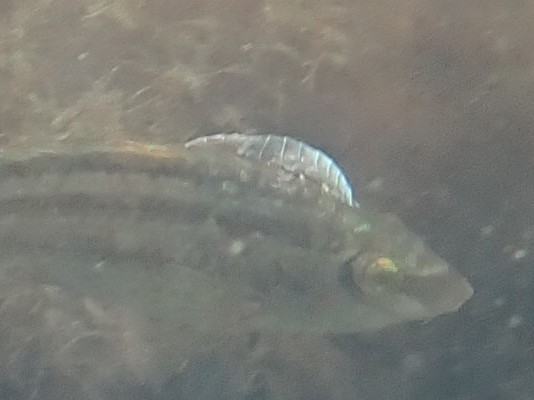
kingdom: Animalia
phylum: Arthropoda
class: Malacostraca
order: Isopoda
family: Cymothoidae
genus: Anilocra
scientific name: Anilocra
